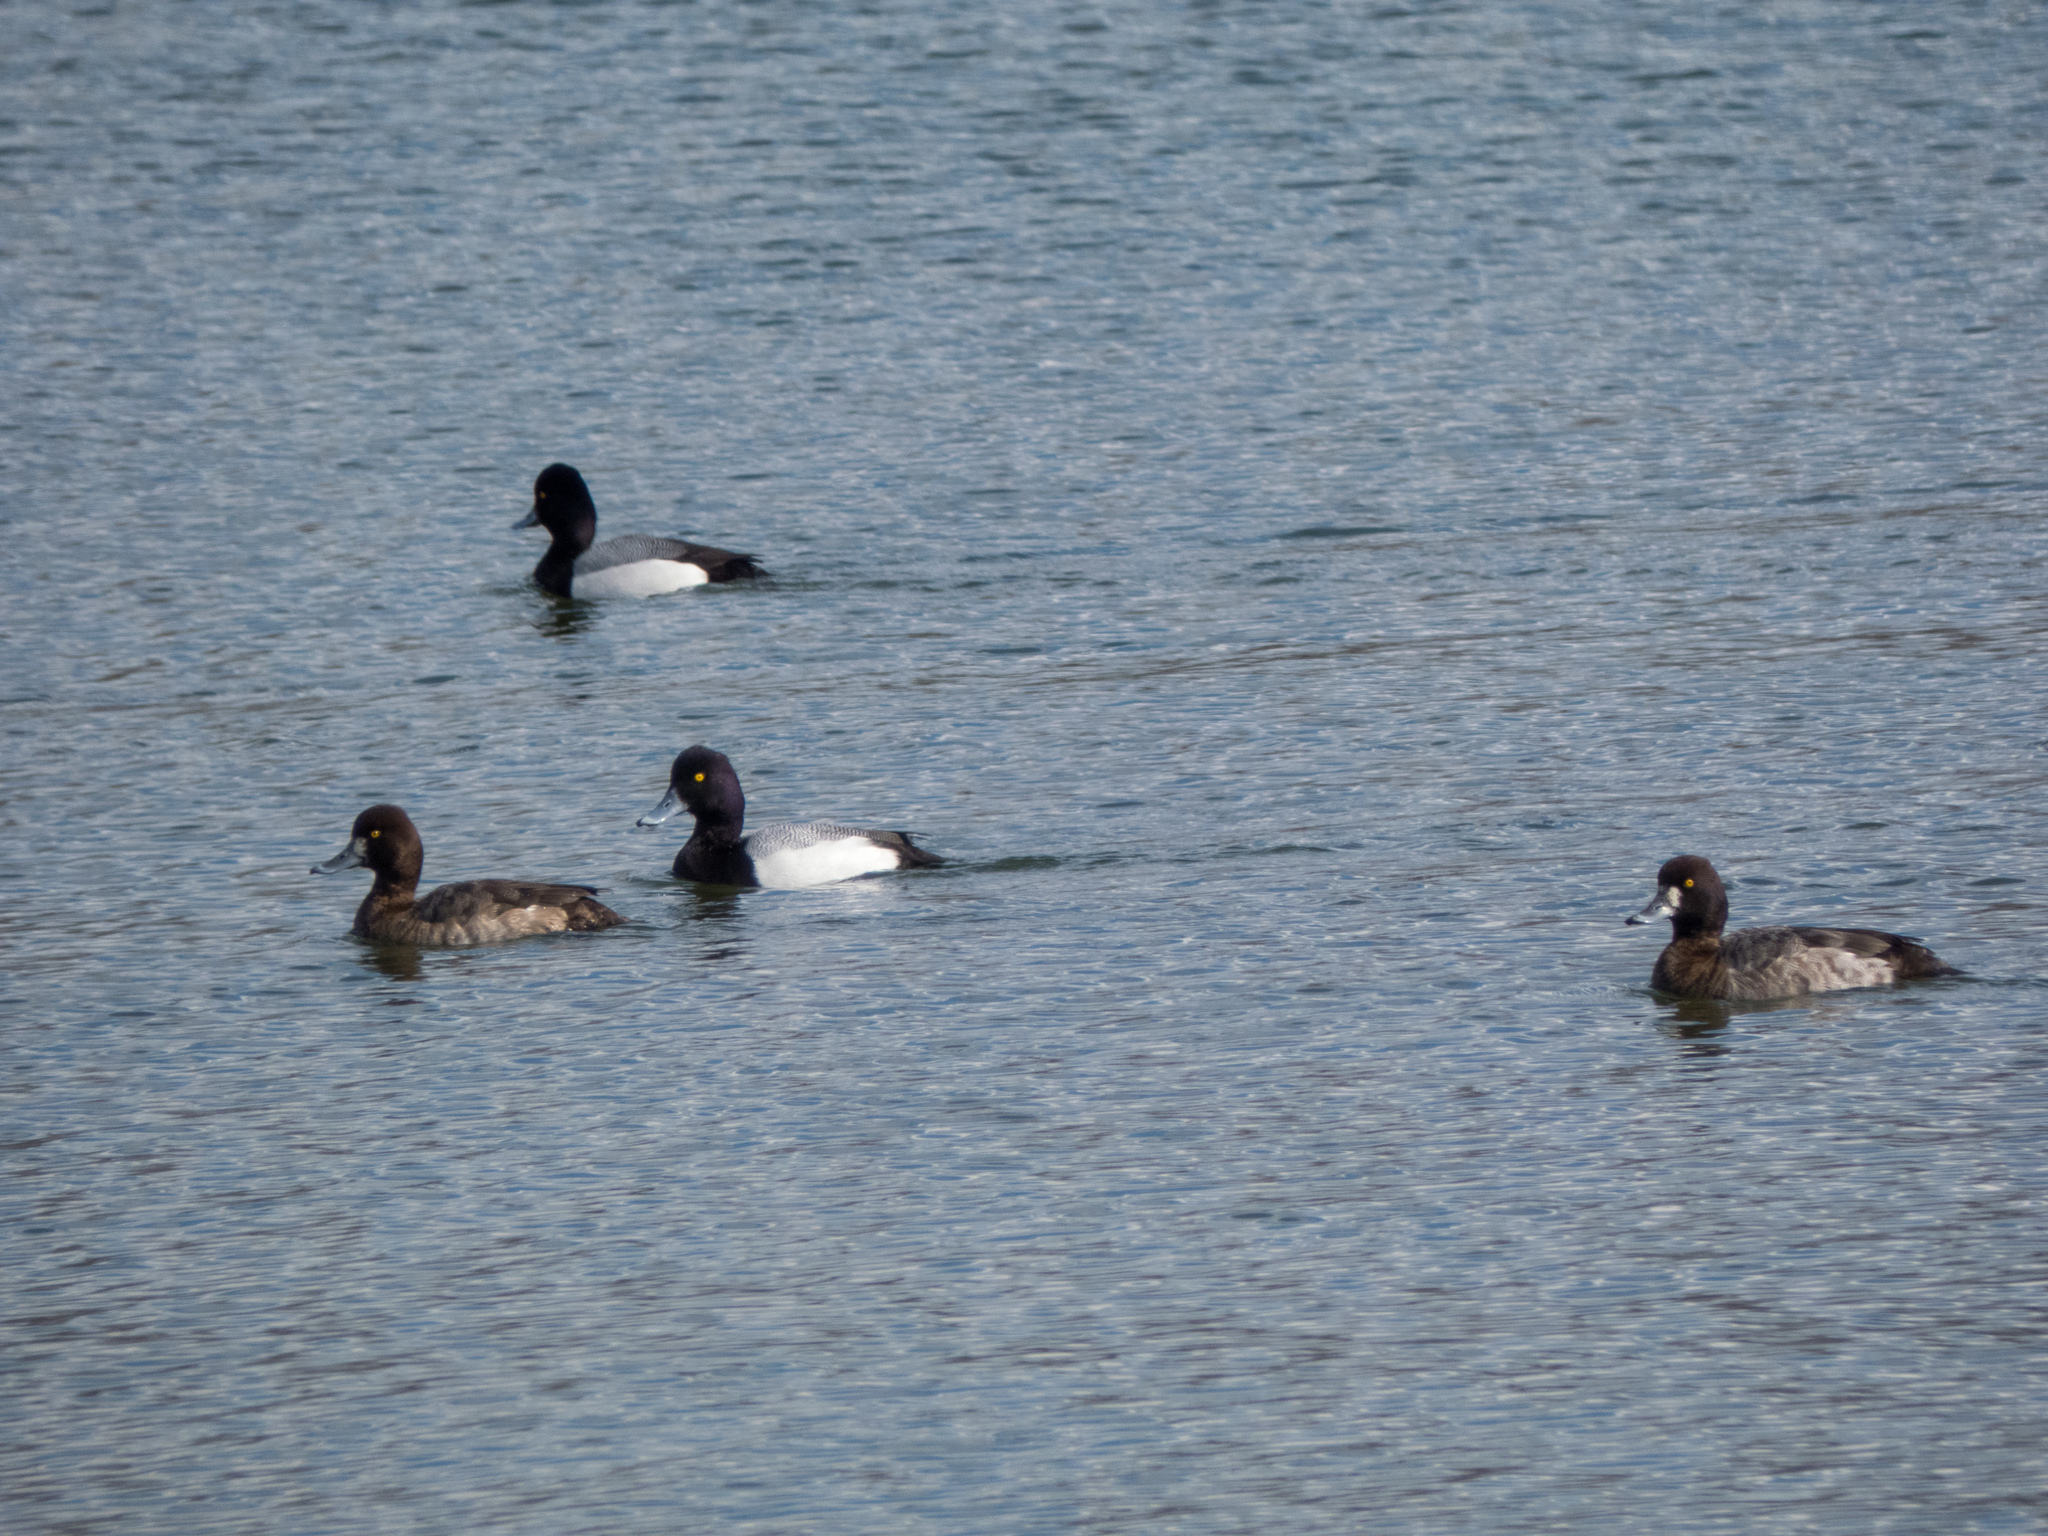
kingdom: Animalia
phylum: Chordata
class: Aves
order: Anseriformes
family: Anatidae
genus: Aythya
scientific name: Aythya affinis
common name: Lesser scaup
